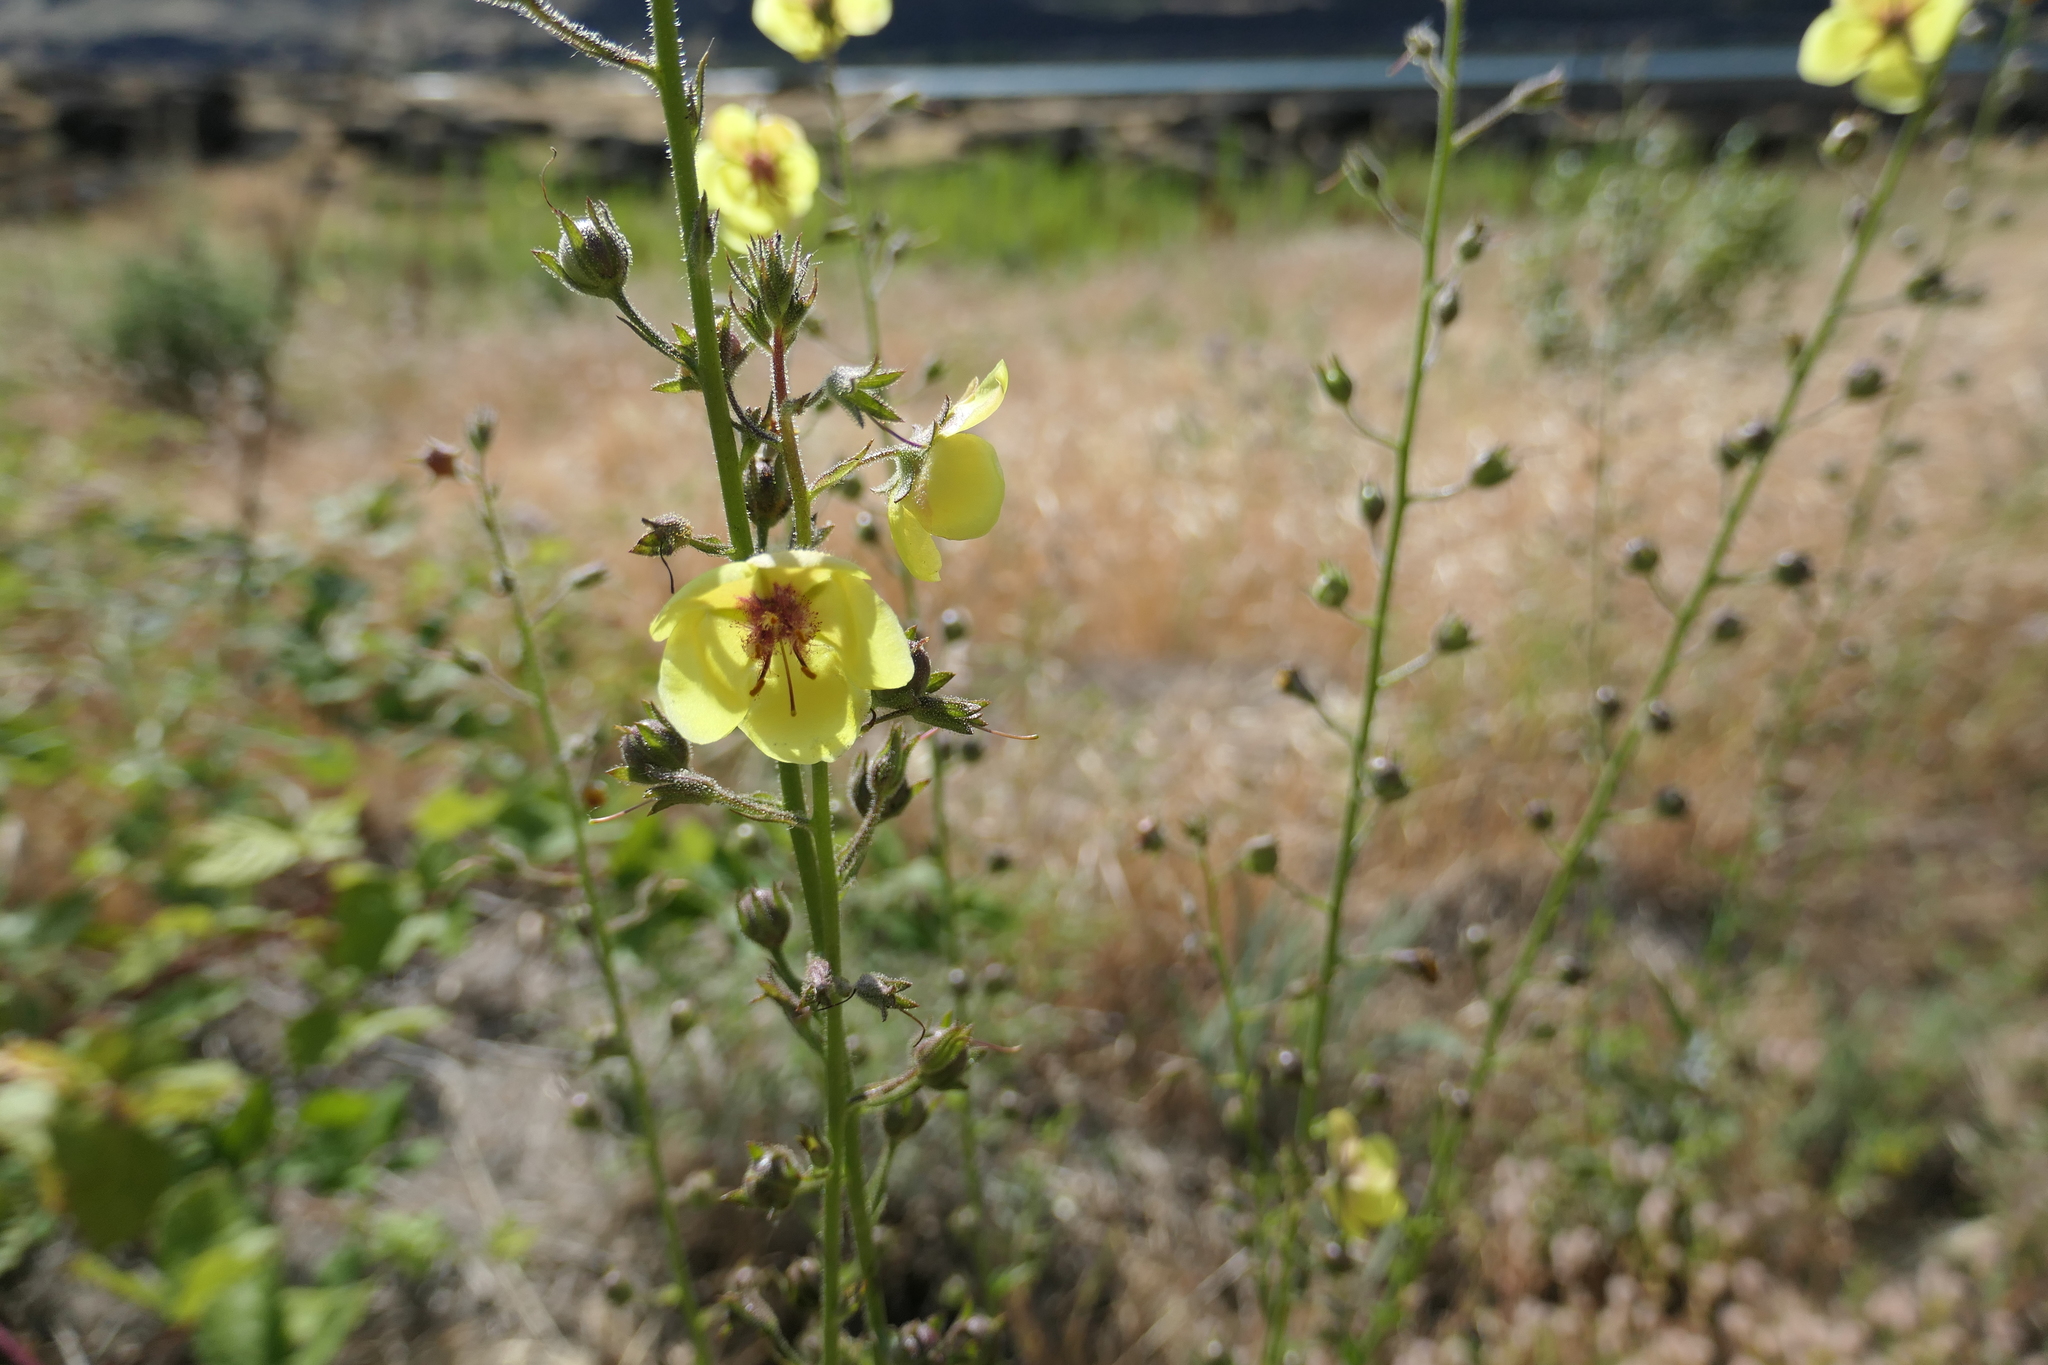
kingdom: Plantae
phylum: Tracheophyta
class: Magnoliopsida
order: Lamiales
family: Scrophulariaceae
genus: Verbascum
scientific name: Verbascum blattaria
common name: Moth mullein
